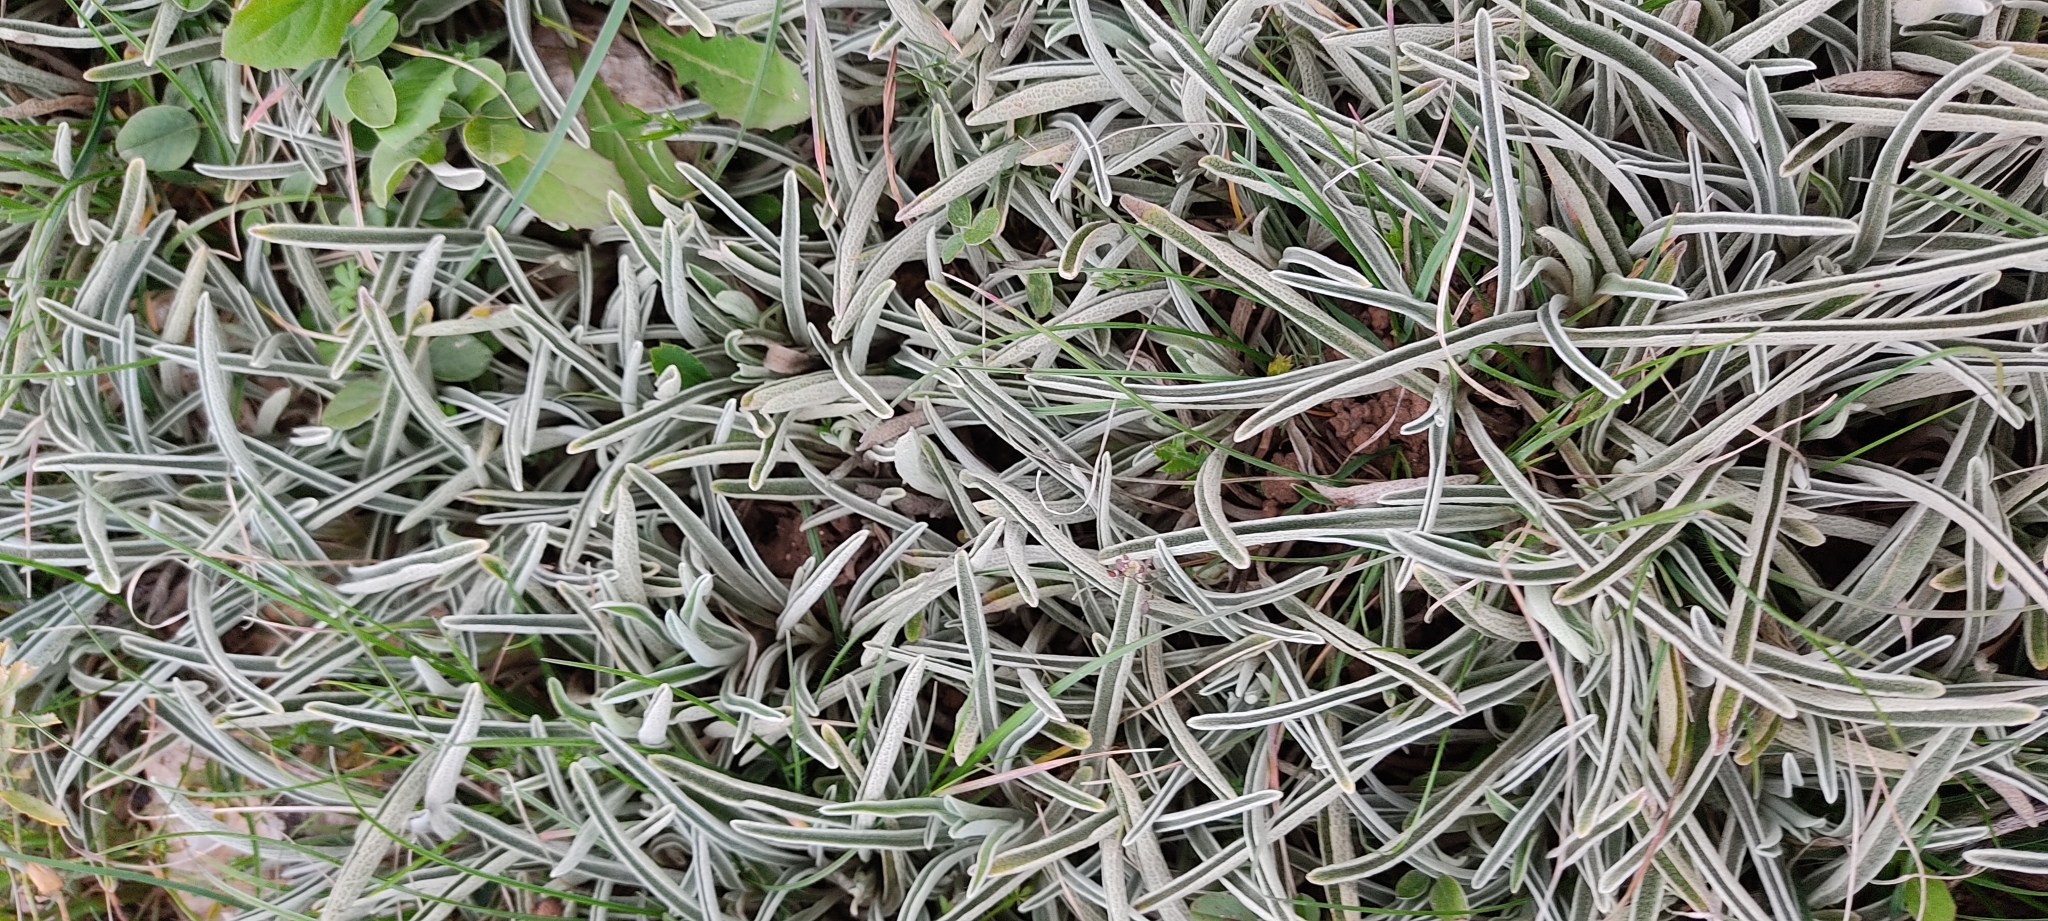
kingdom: Plantae
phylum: Tracheophyta
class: Magnoliopsida
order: Lamiales
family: Lamiaceae
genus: Phlomis
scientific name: Phlomis lychnitis
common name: Lampwickplant
